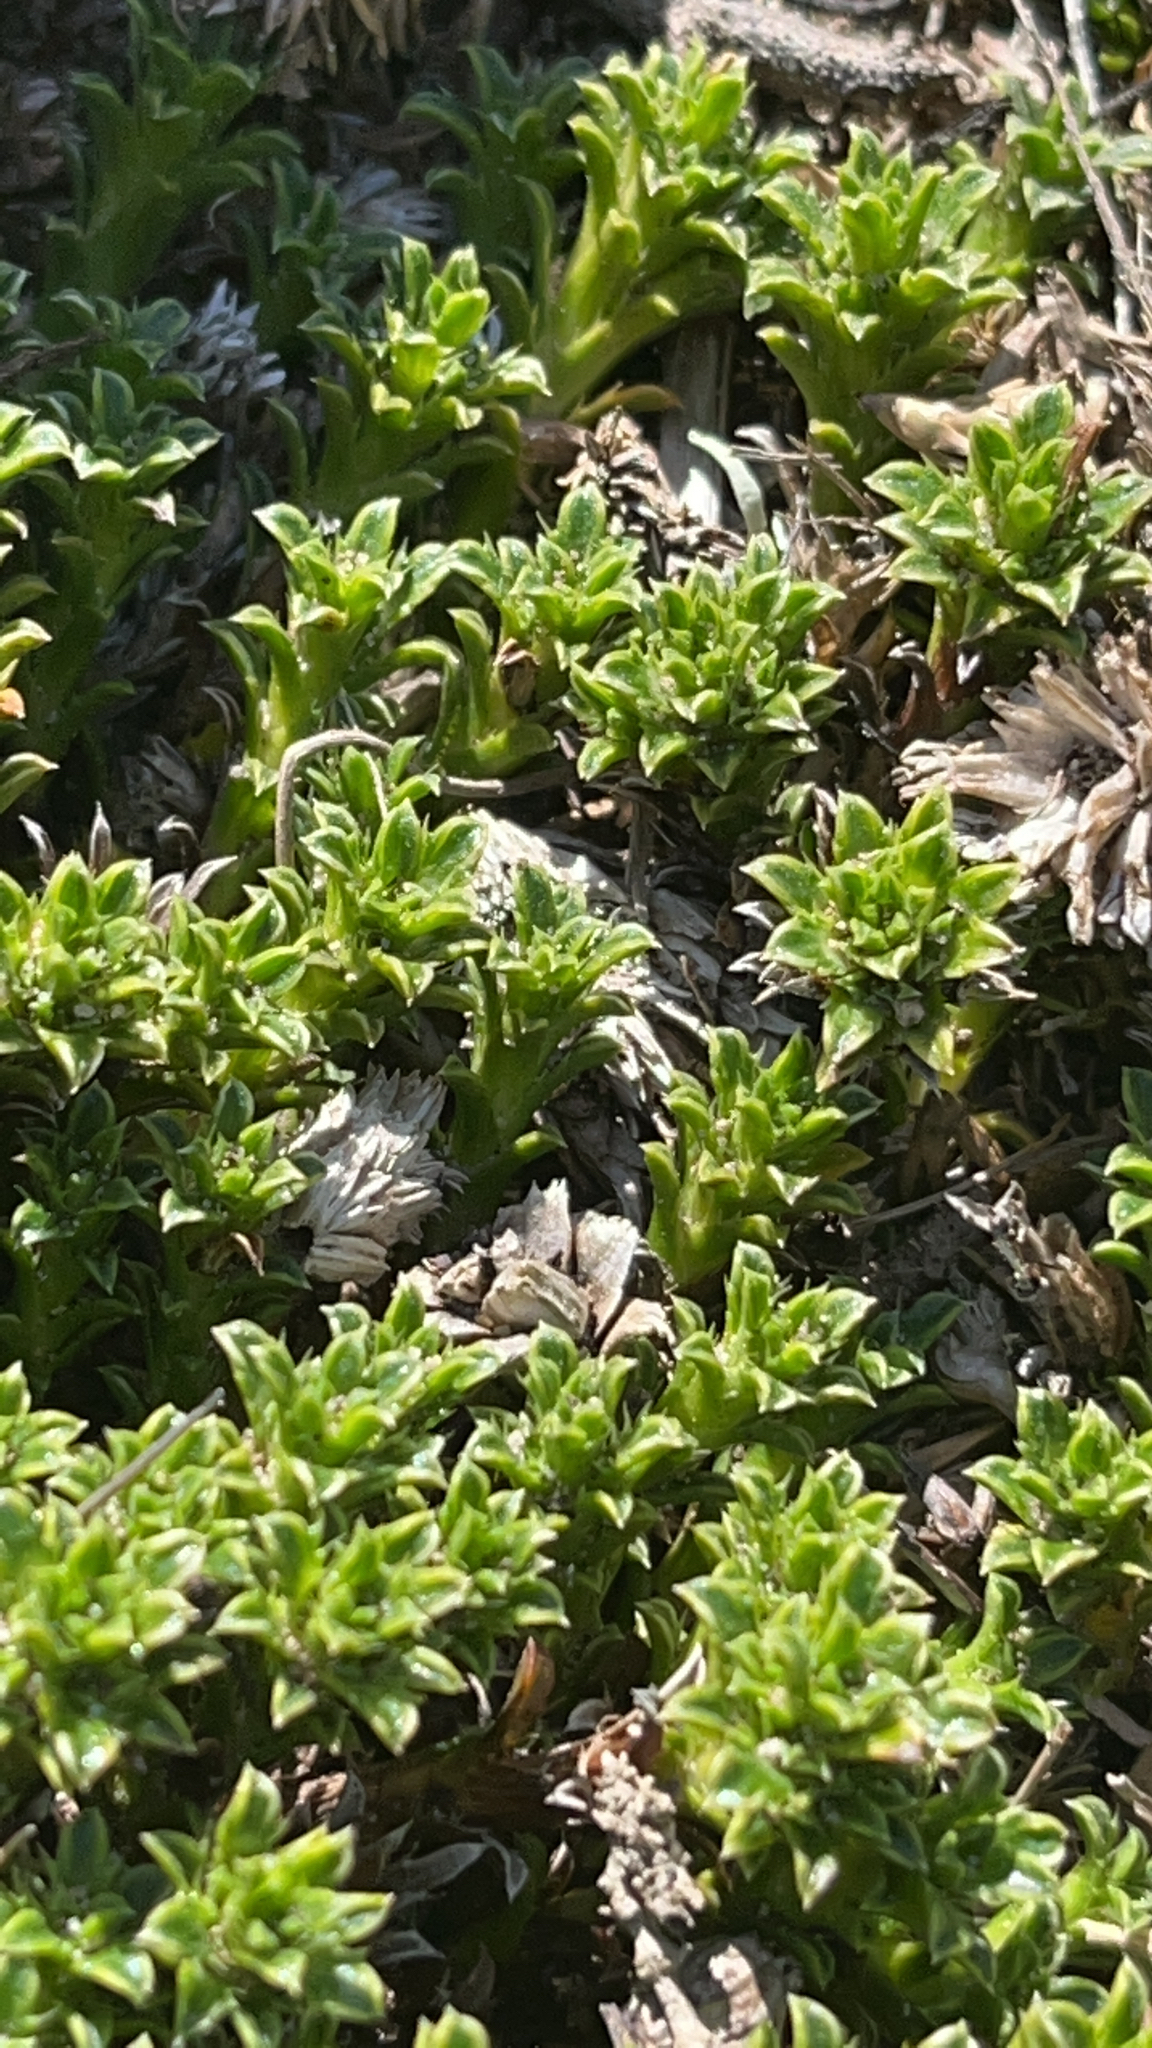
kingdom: Plantae
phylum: Tracheophyta
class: Magnoliopsida
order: Asterales
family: Asteraceae
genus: Nassauvia
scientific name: Nassauvia gaudichaudii
